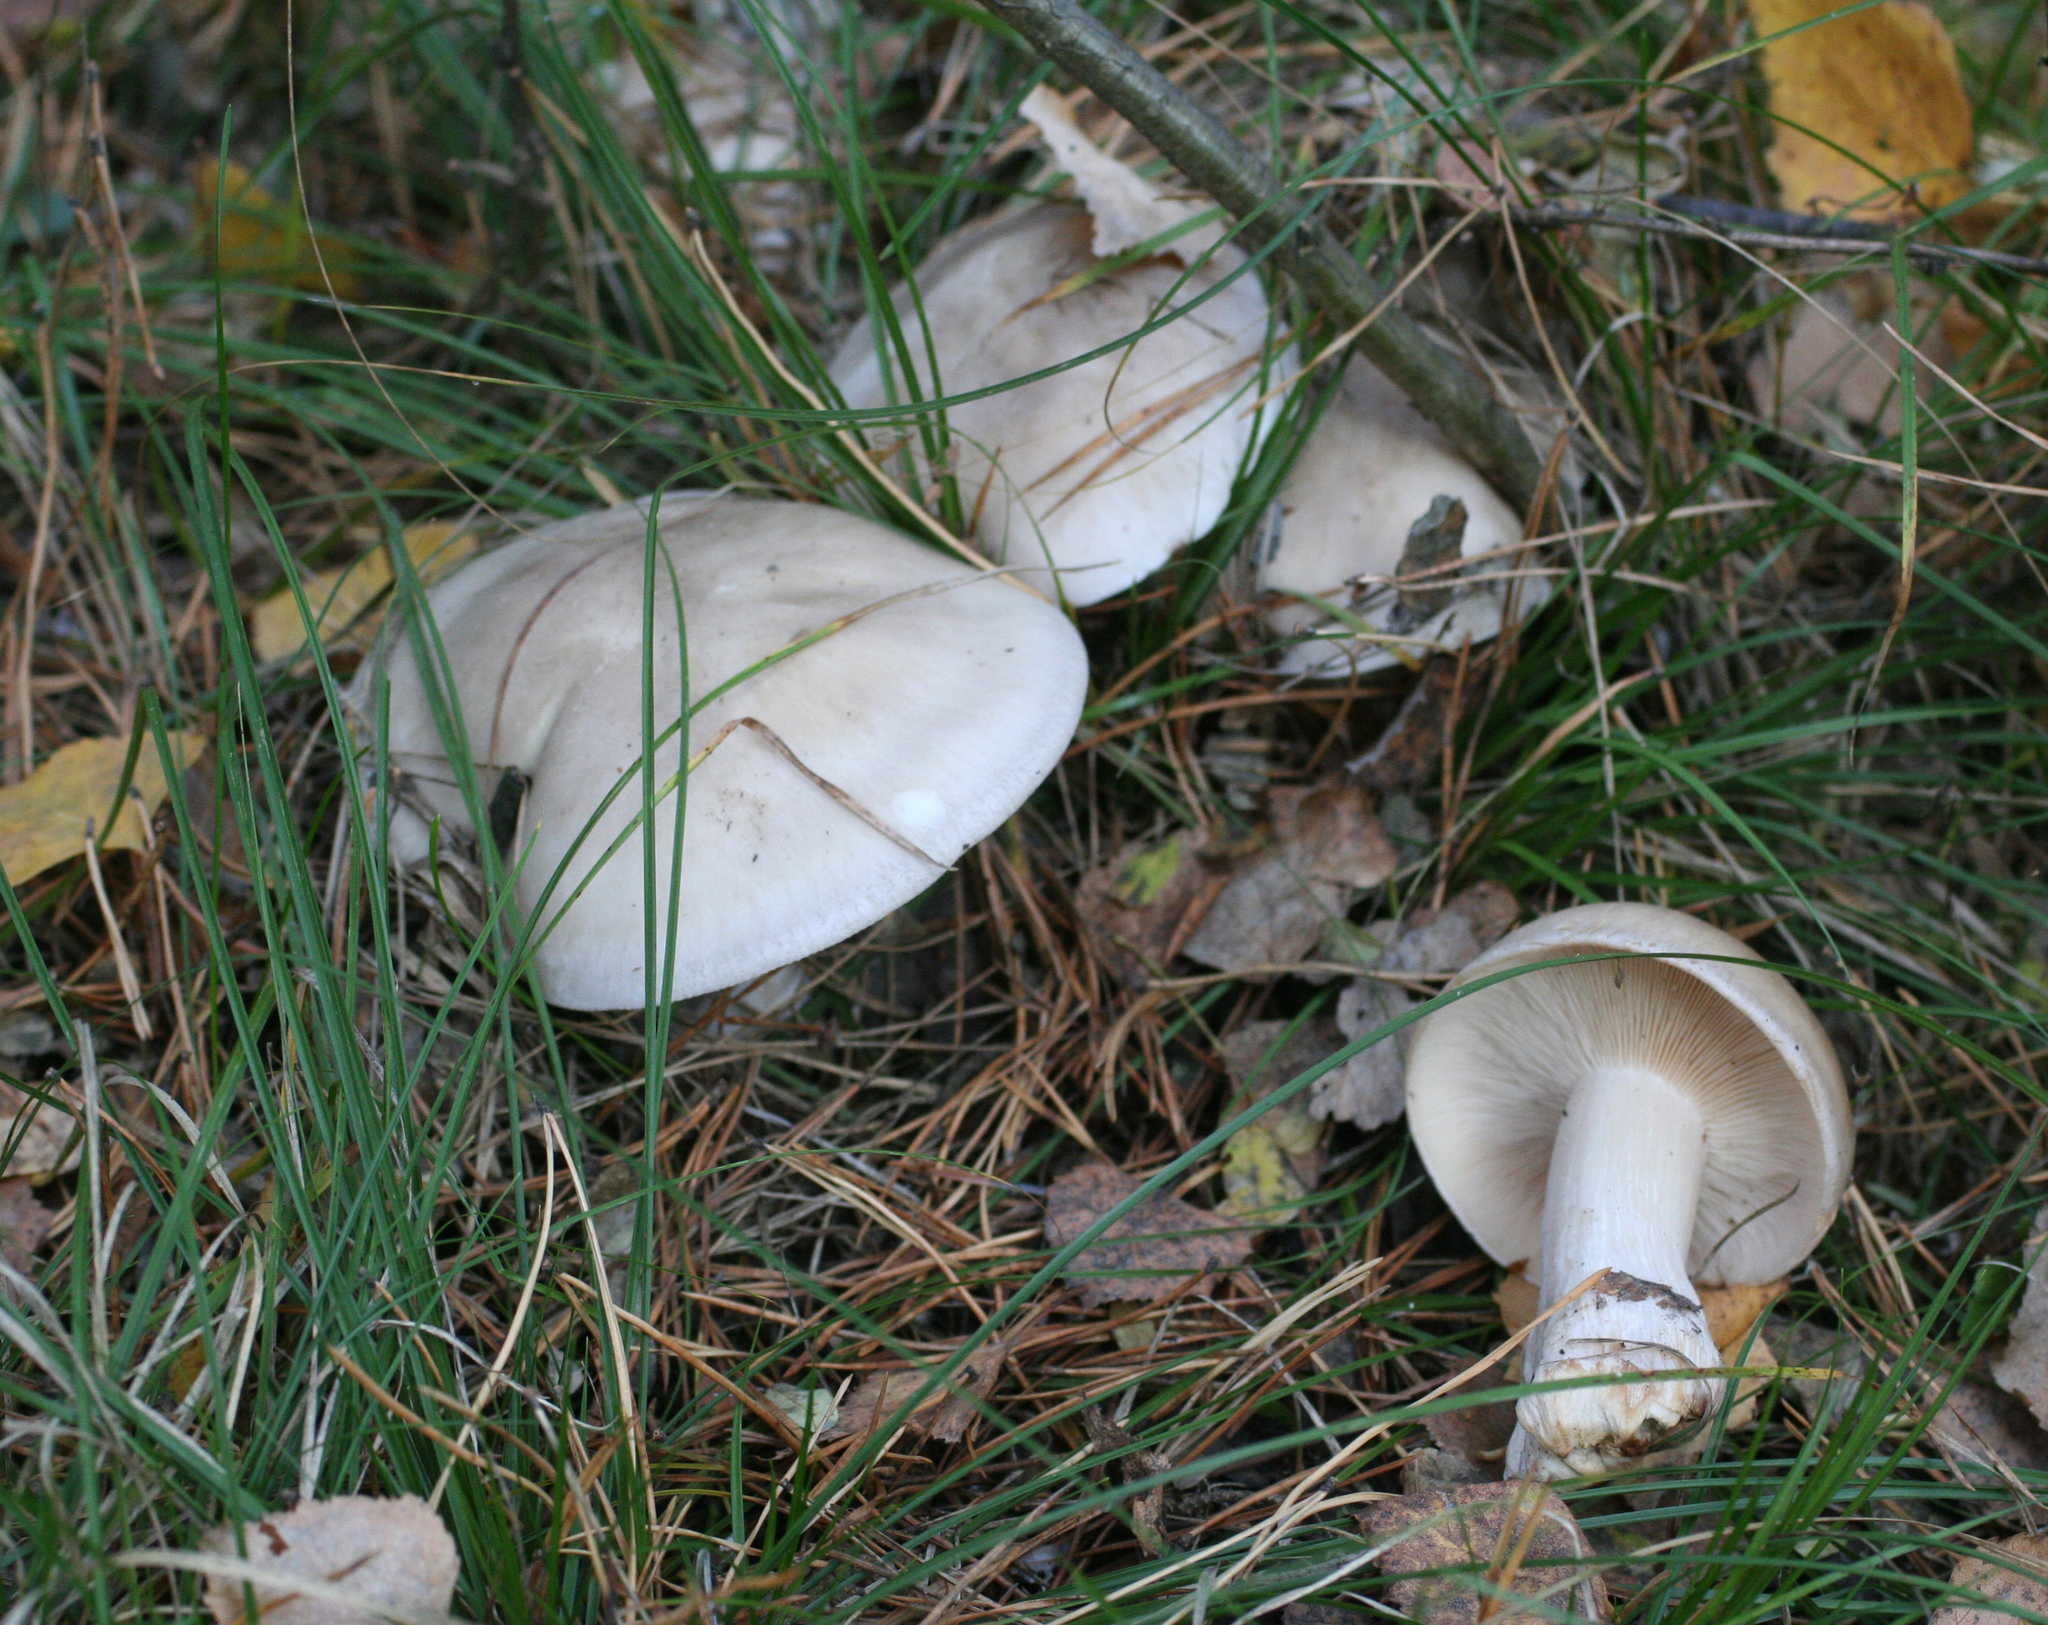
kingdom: Fungi
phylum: Basidiomycota
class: Agaricomycetes
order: Agaricales
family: Tricholomataceae
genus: Clitocybe
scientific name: Clitocybe nebularis
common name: Clouded agaric
